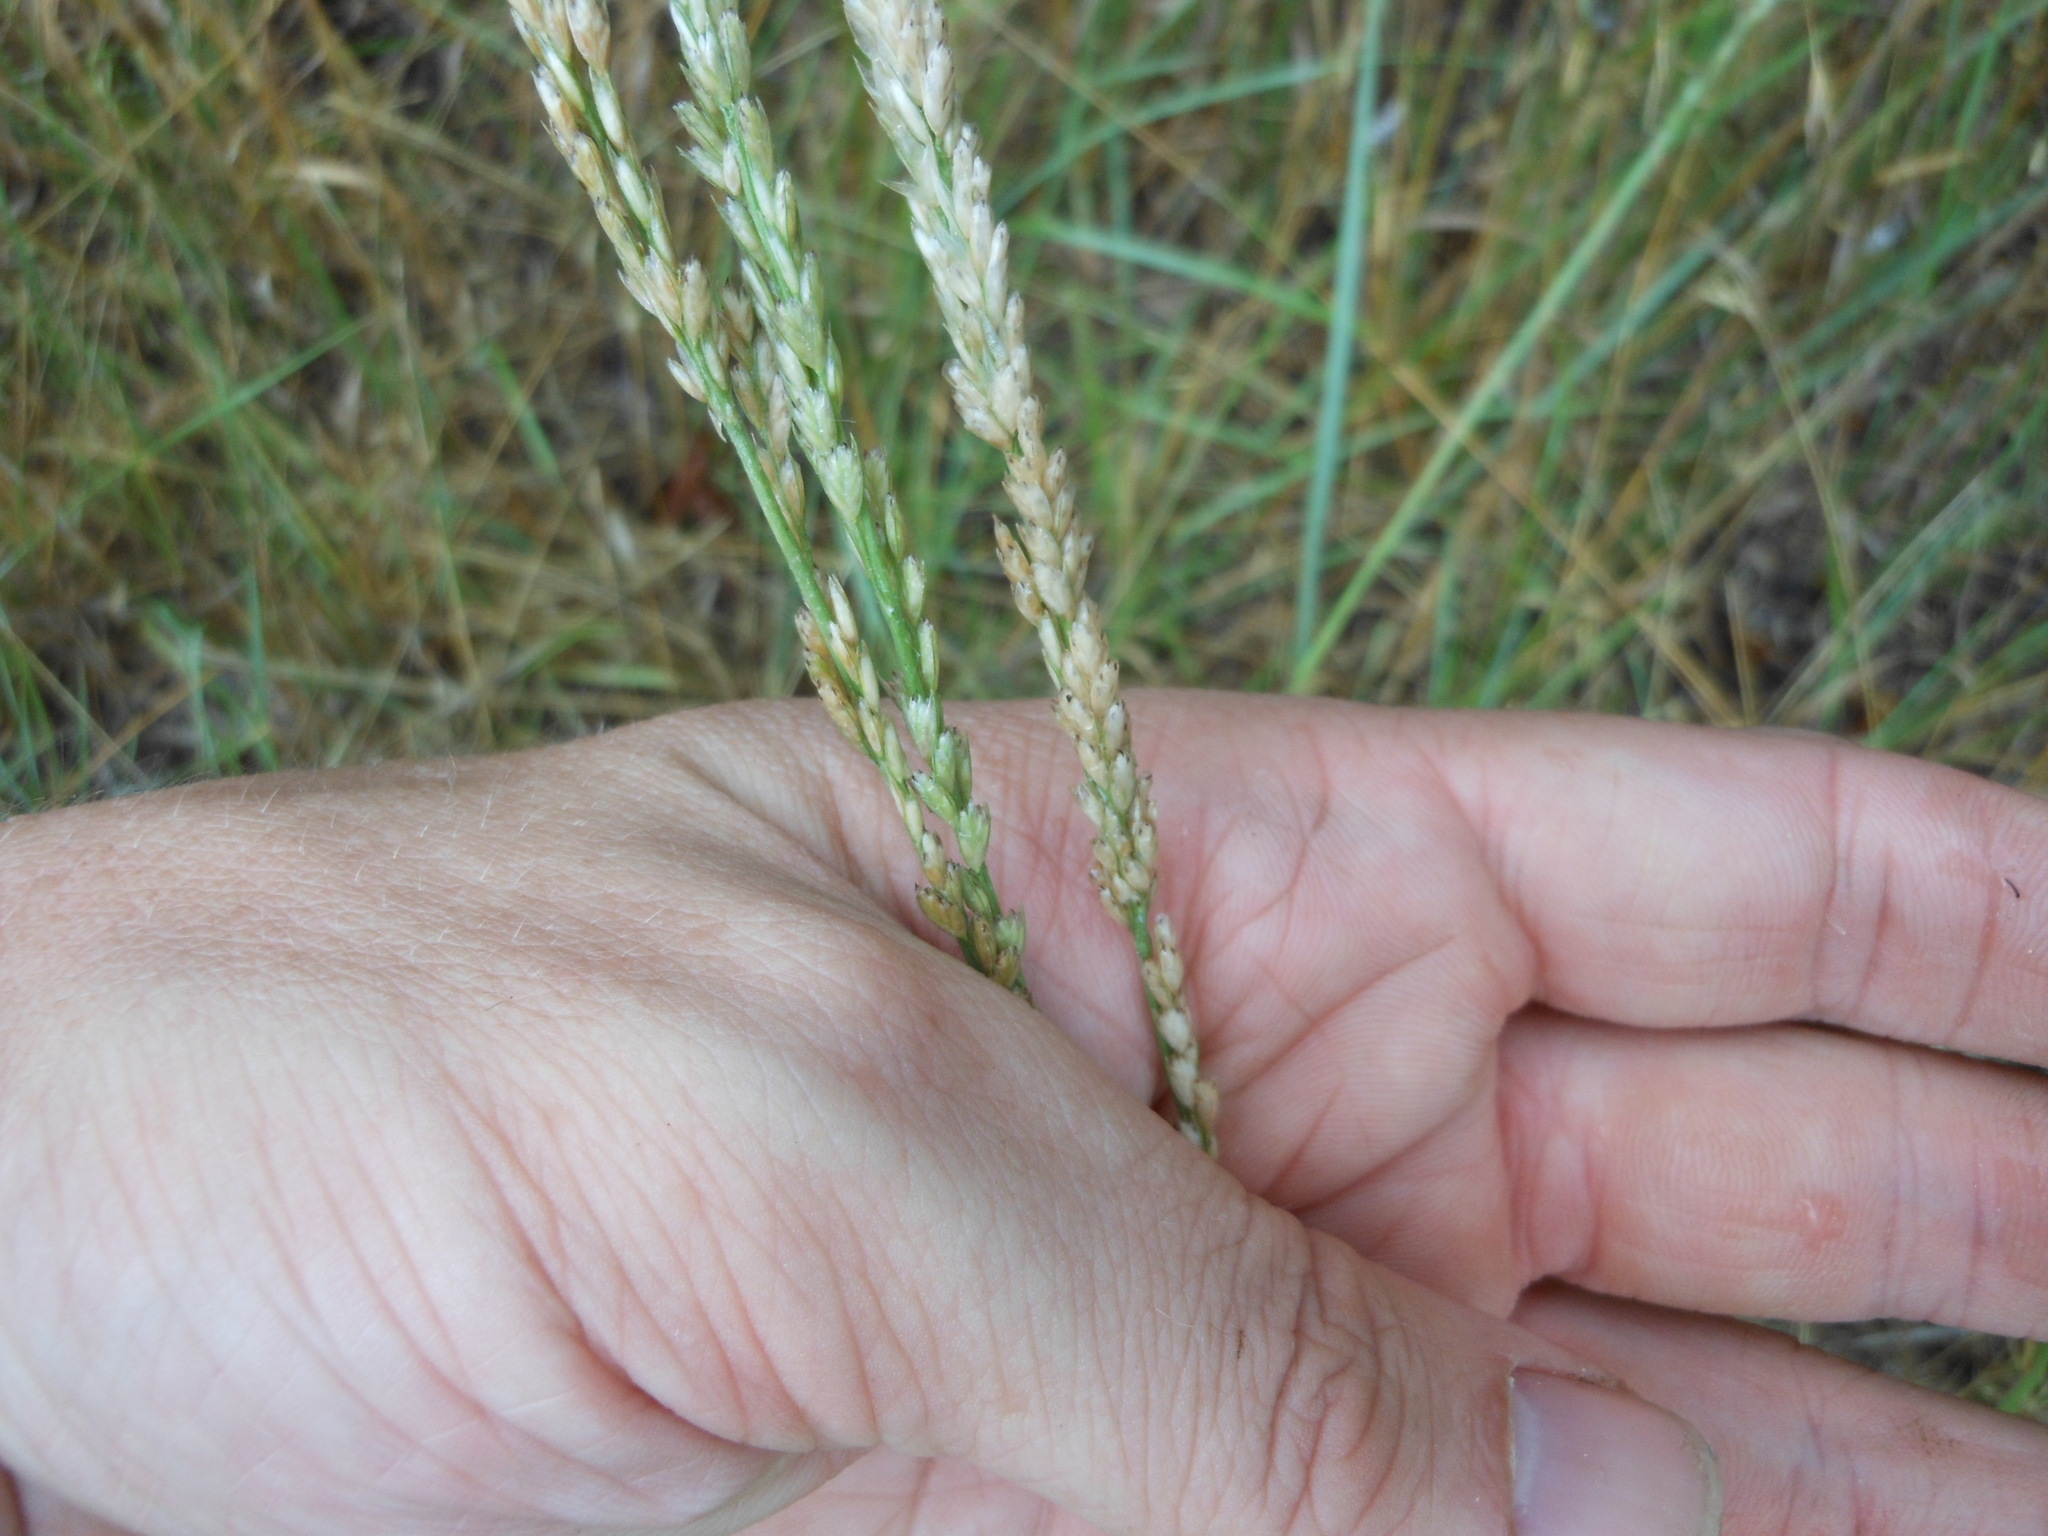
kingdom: Plantae
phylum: Tracheophyta
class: Liliopsida
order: Poales
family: Poaceae
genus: Tridens
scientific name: Tridens albescens
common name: White tridens
